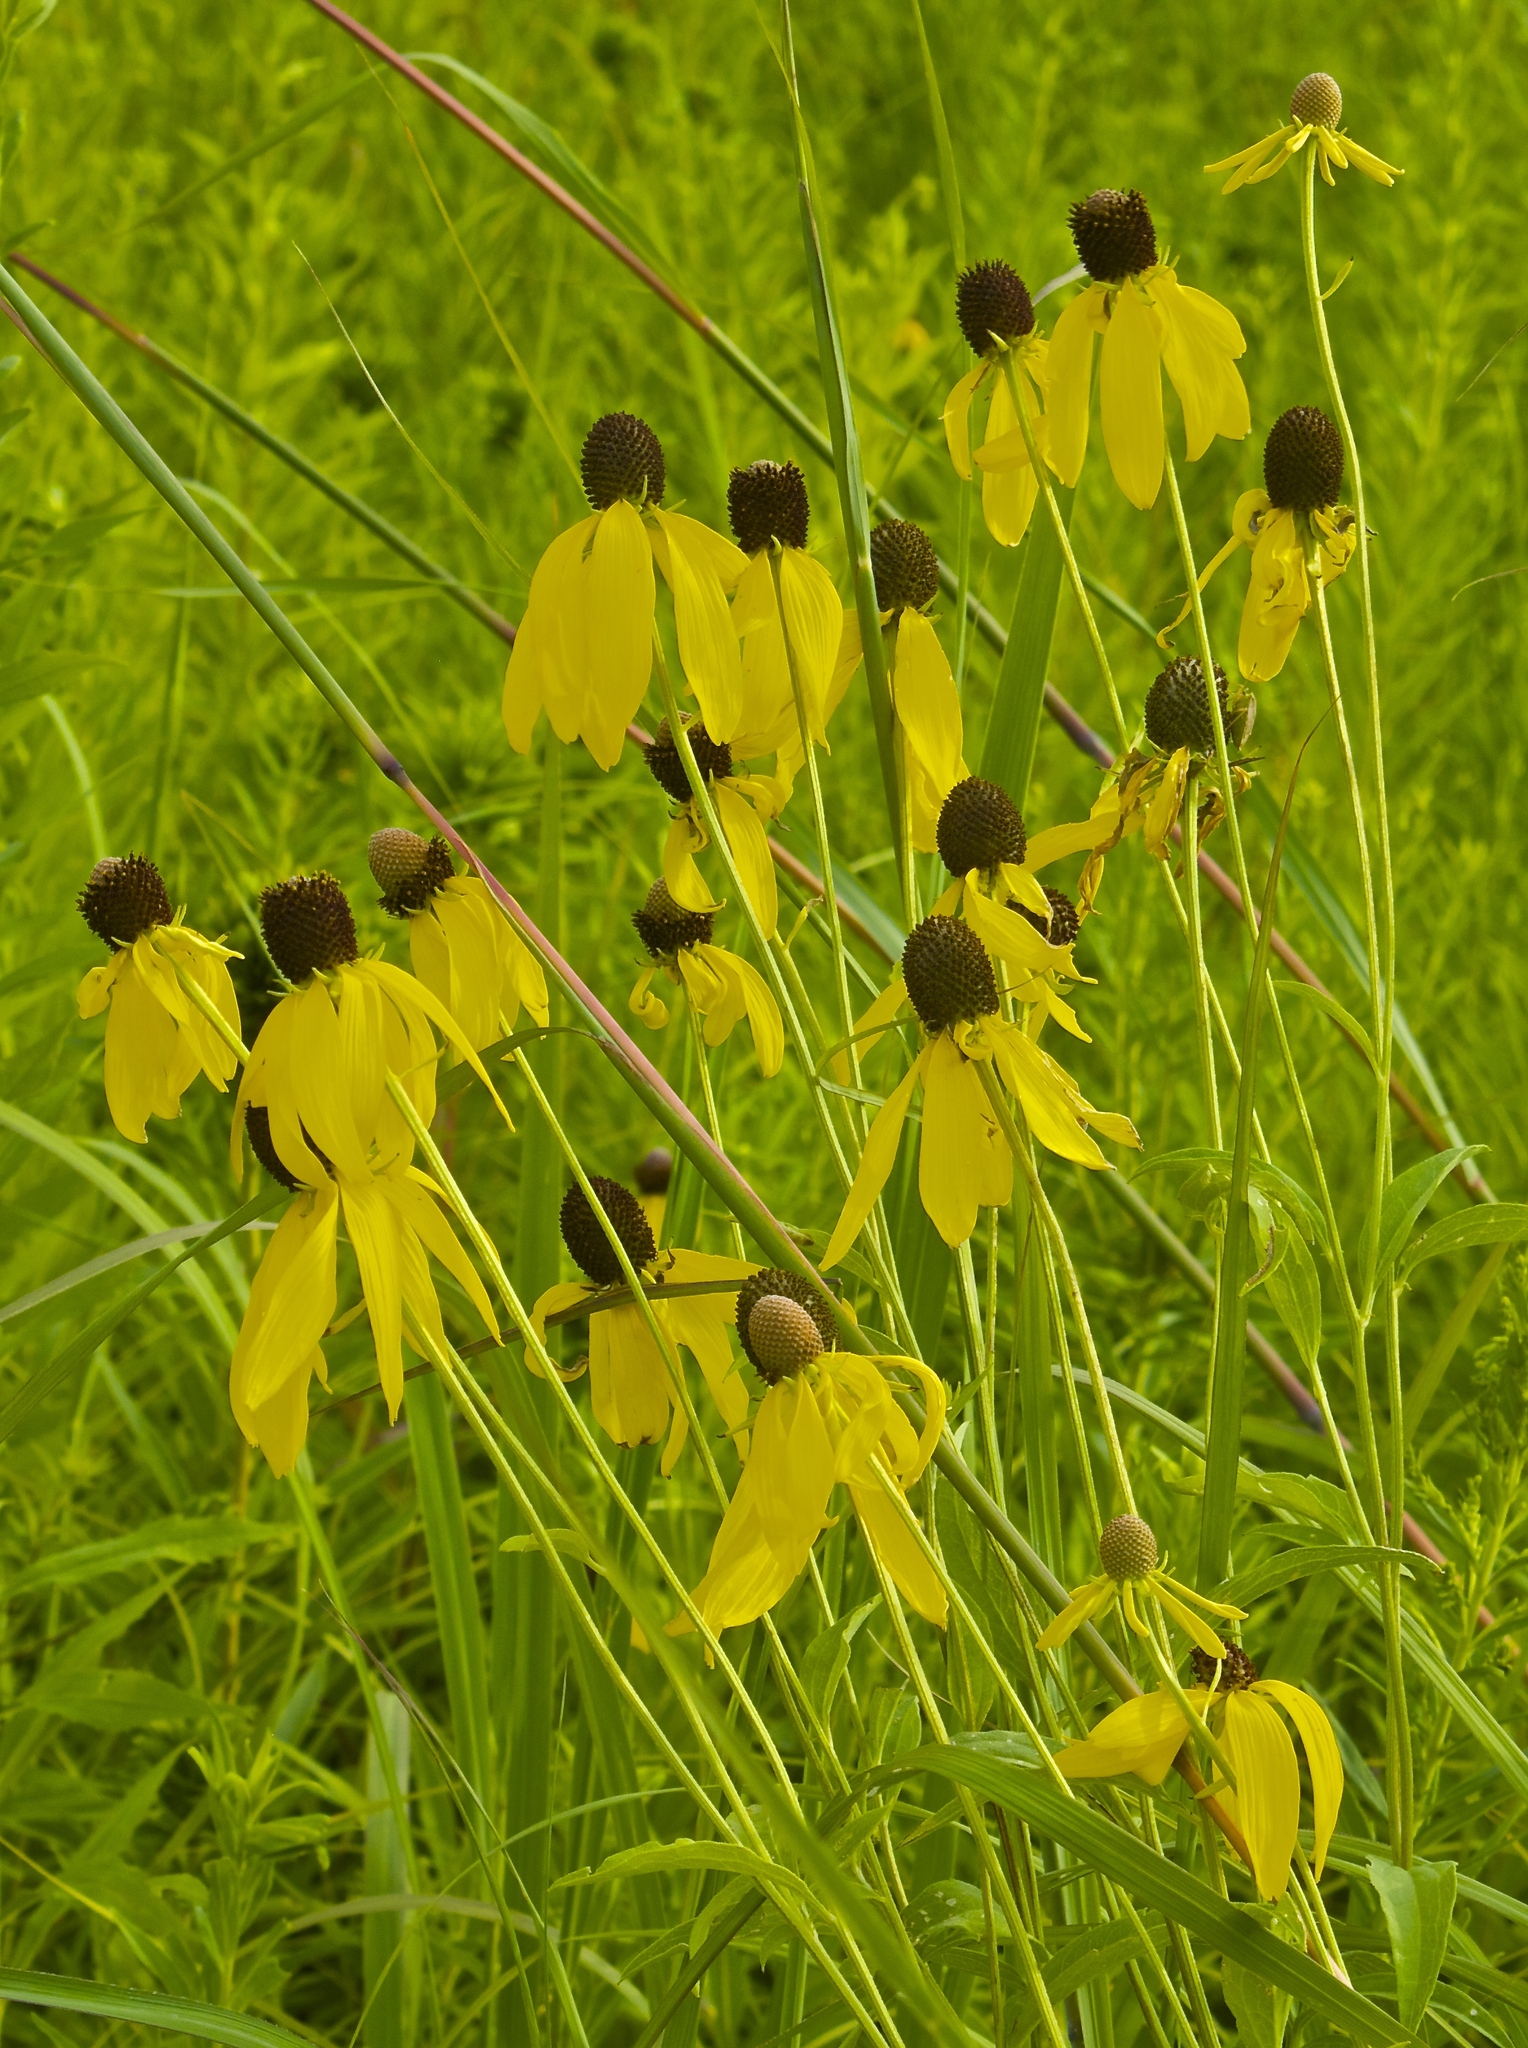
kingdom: Plantae
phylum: Tracheophyta
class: Magnoliopsida
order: Asterales
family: Asteraceae
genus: Ratibida
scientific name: Ratibida pinnata
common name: Drooping prairie-coneflower
